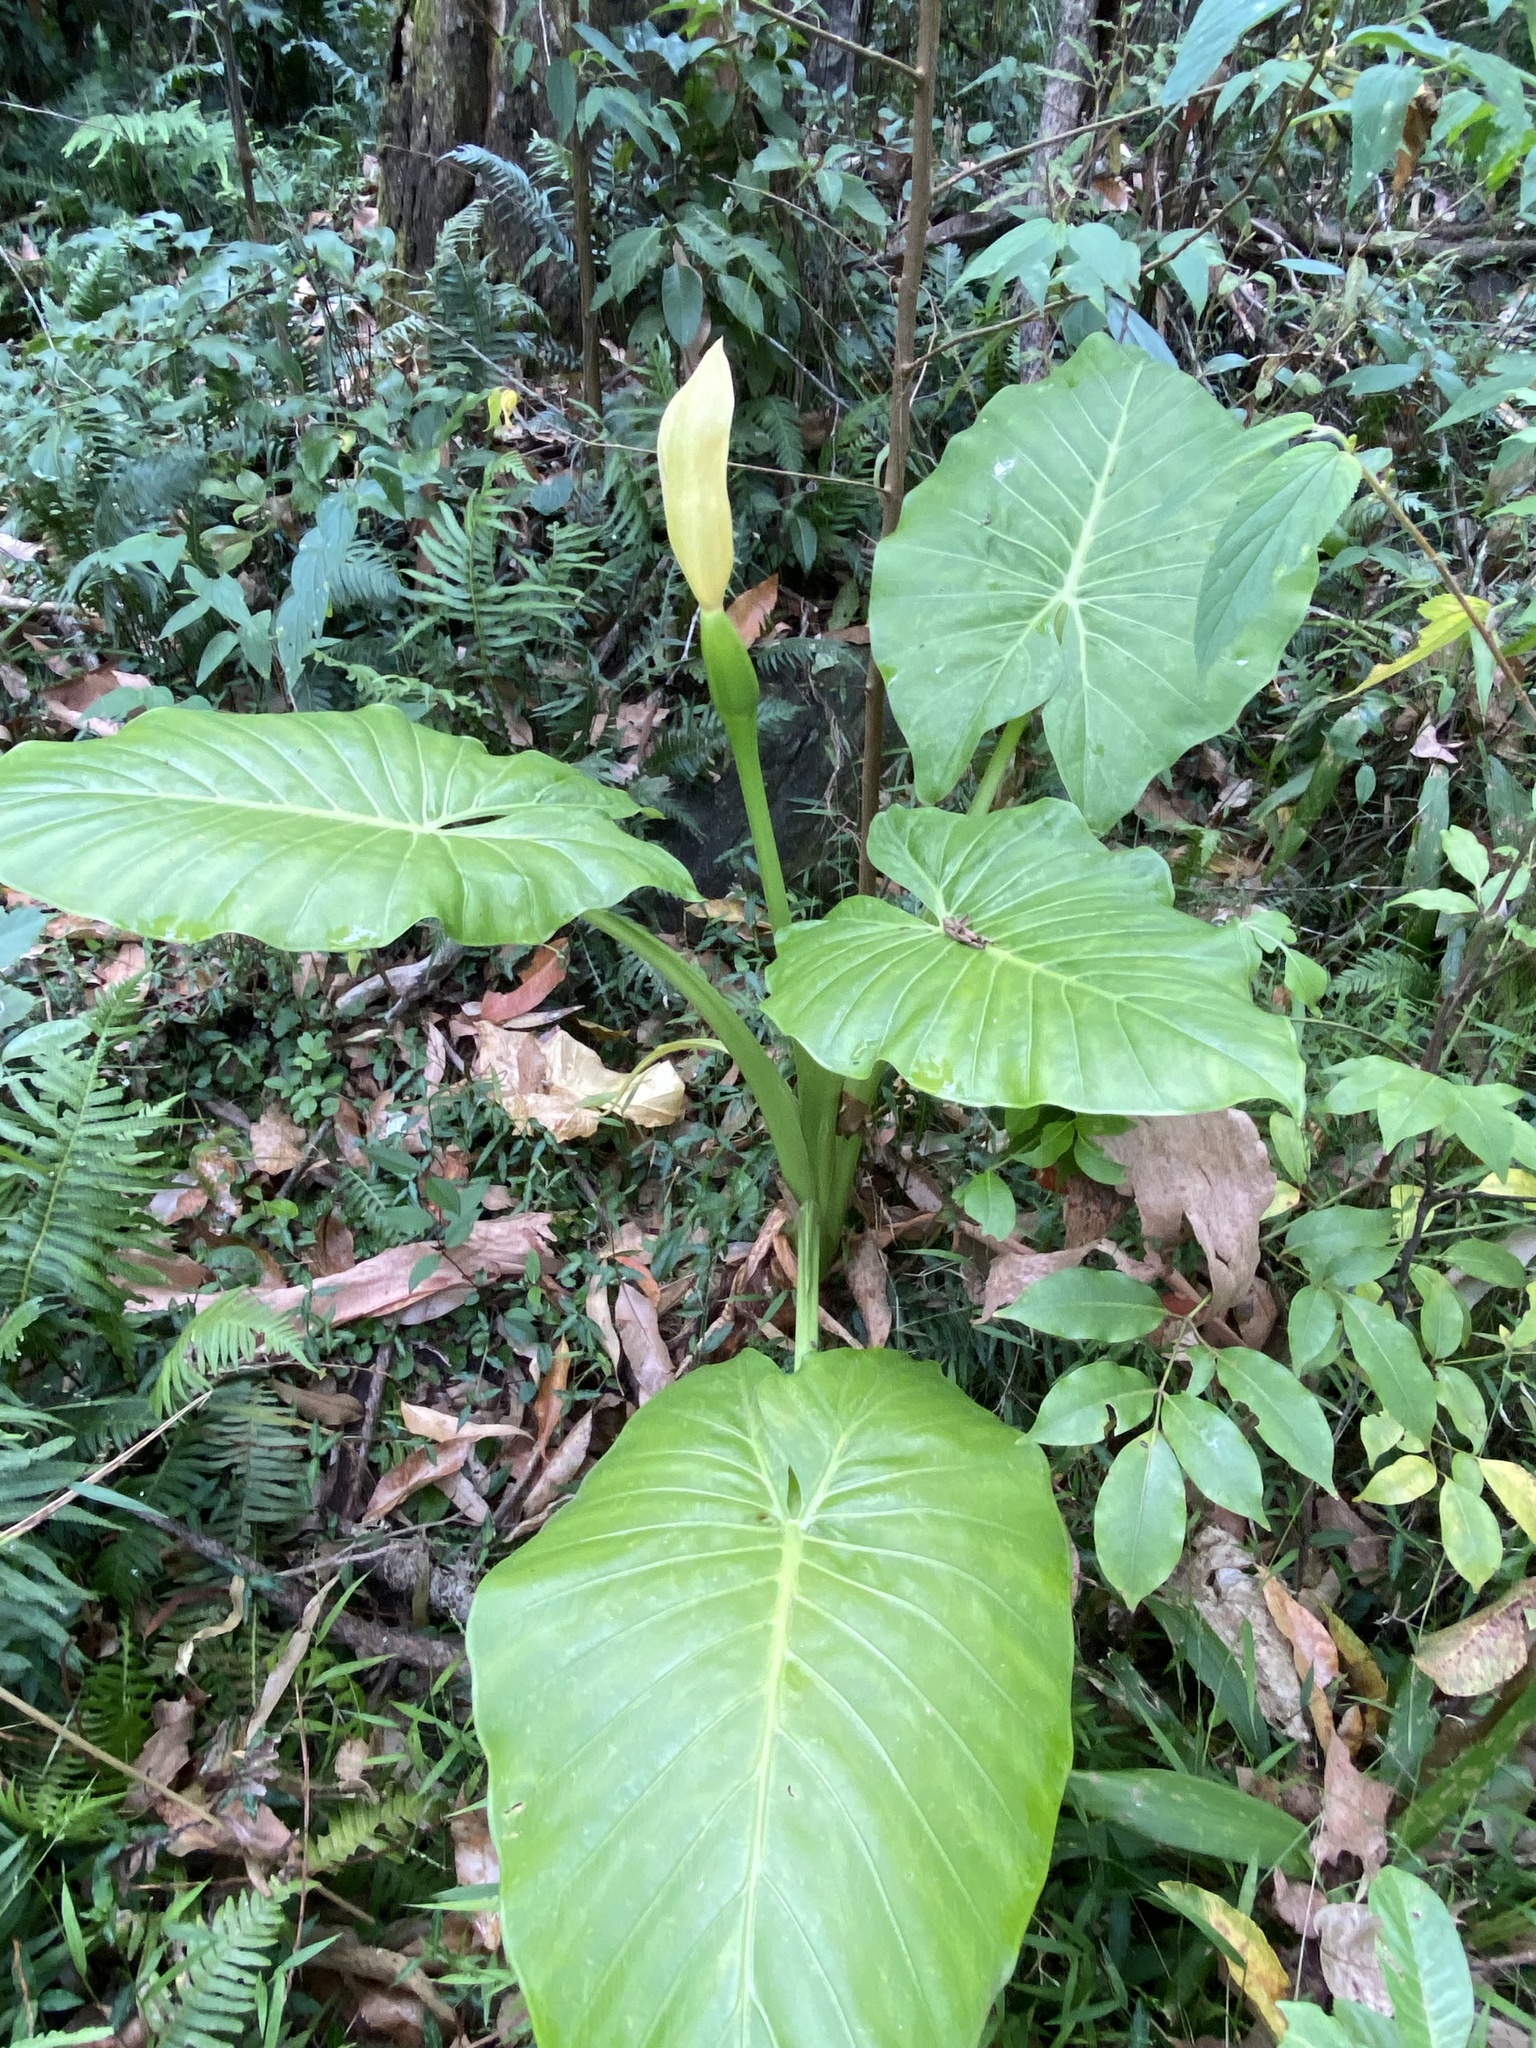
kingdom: Plantae
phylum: Tracheophyta
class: Liliopsida
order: Alismatales
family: Araceae
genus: Alocasia
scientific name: Alocasia brisbanensis
